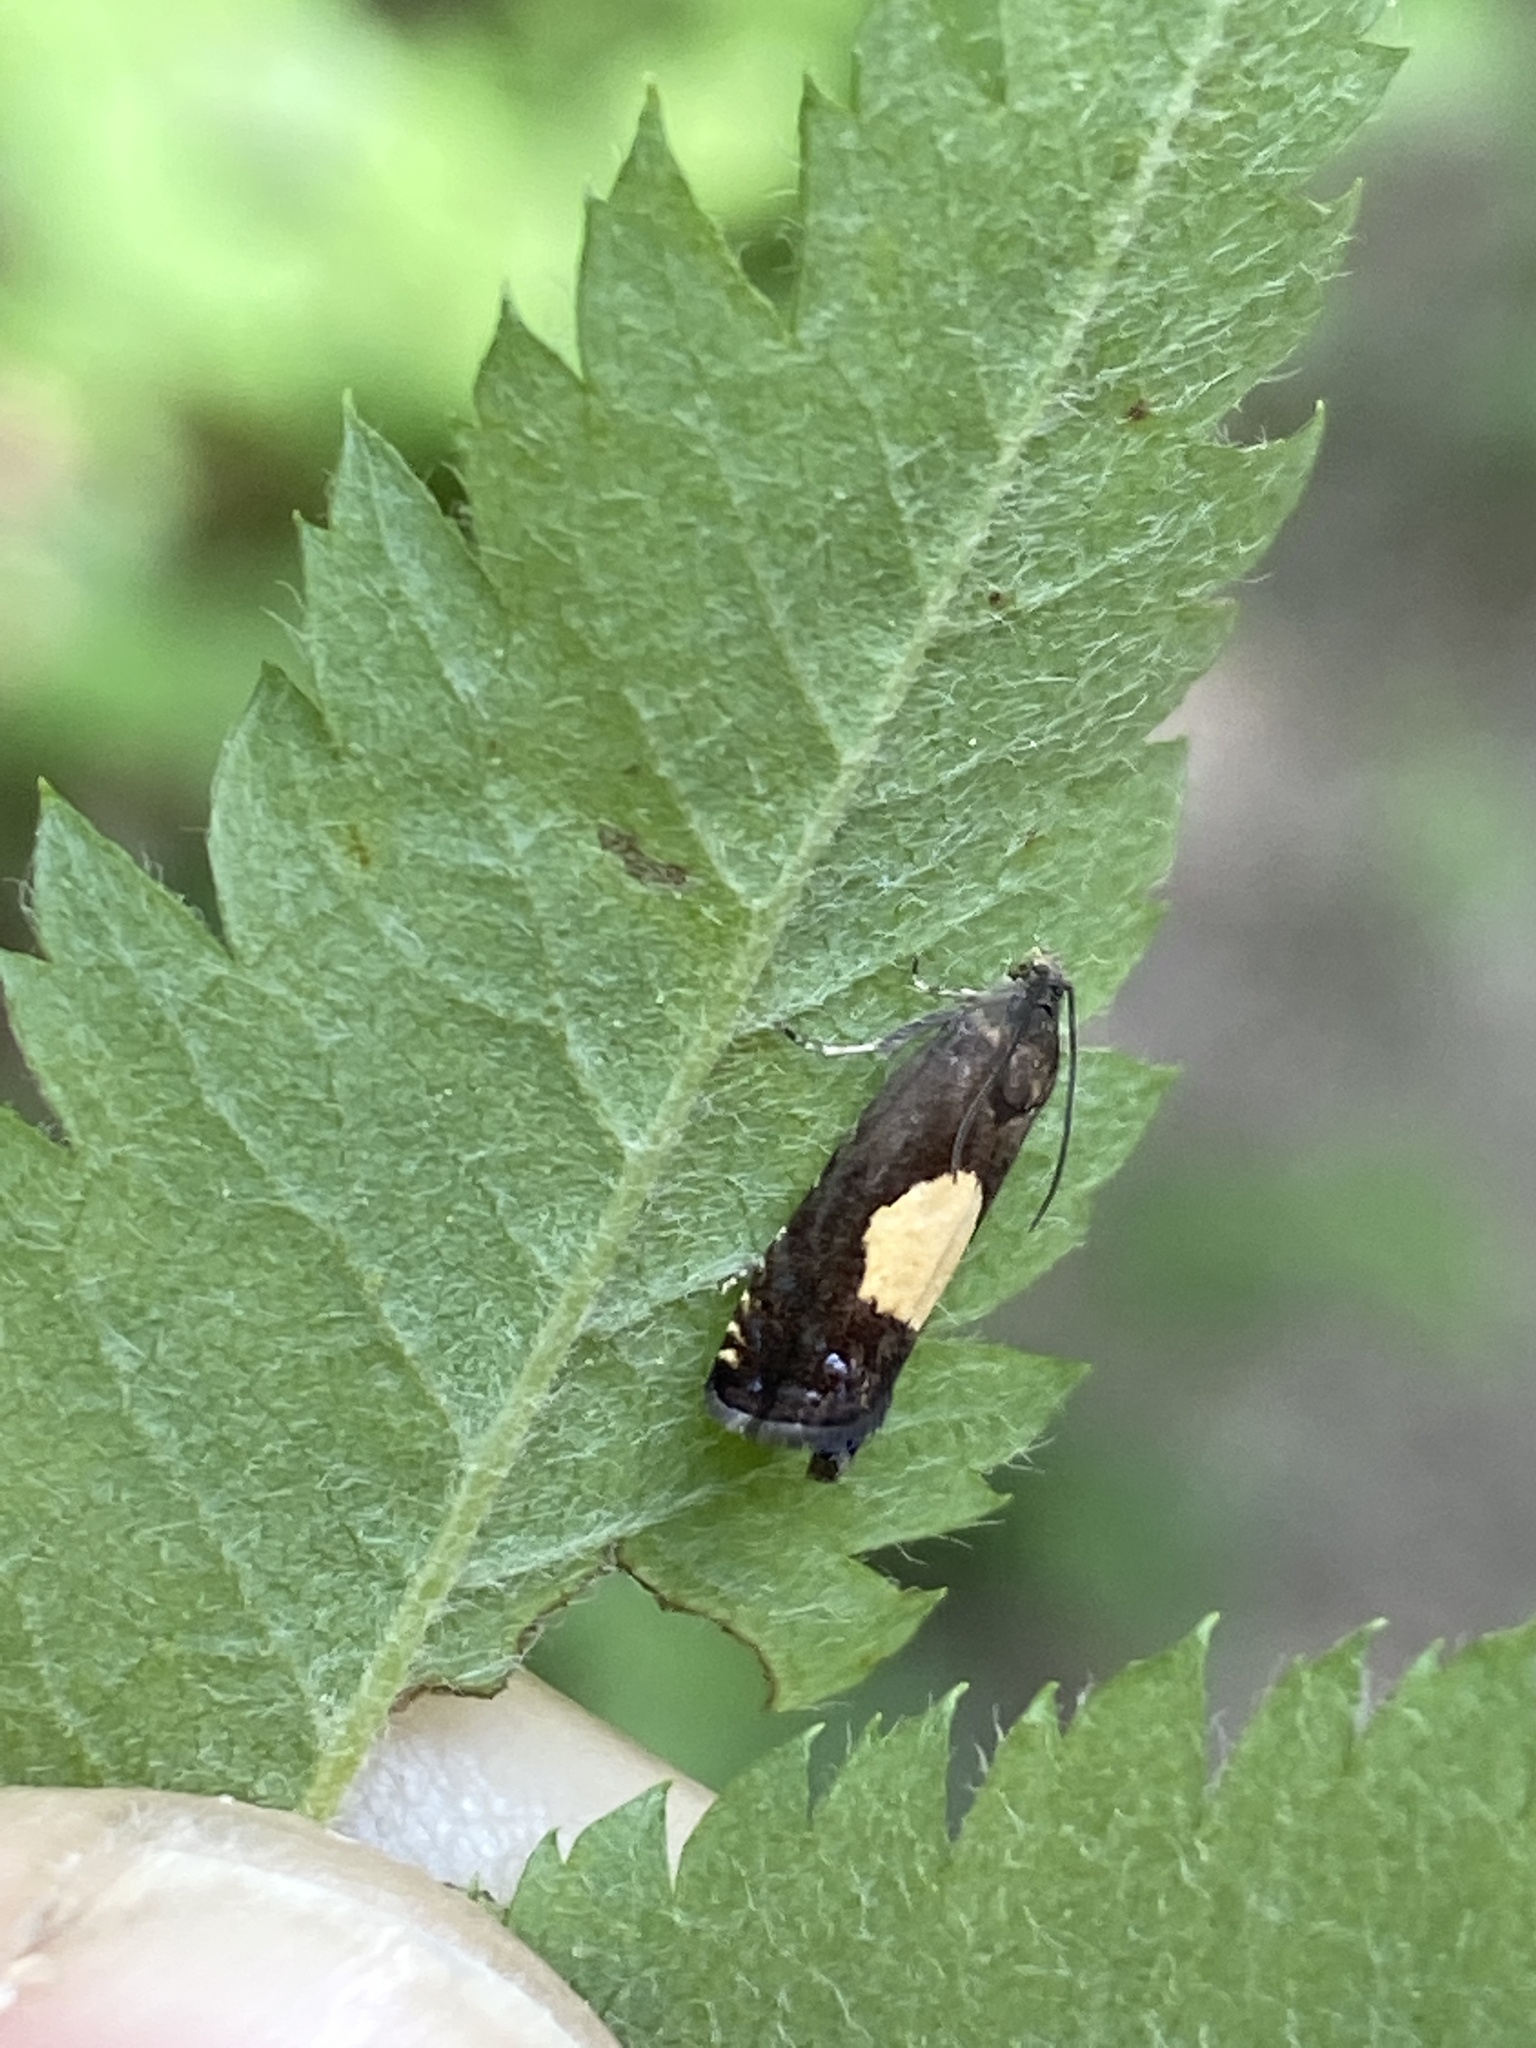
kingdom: Animalia
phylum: Arthropoda
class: Insecta
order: Lepidoptera
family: Tortricidae
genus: Pammene
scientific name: Pammene regiana
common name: Regal piercer
